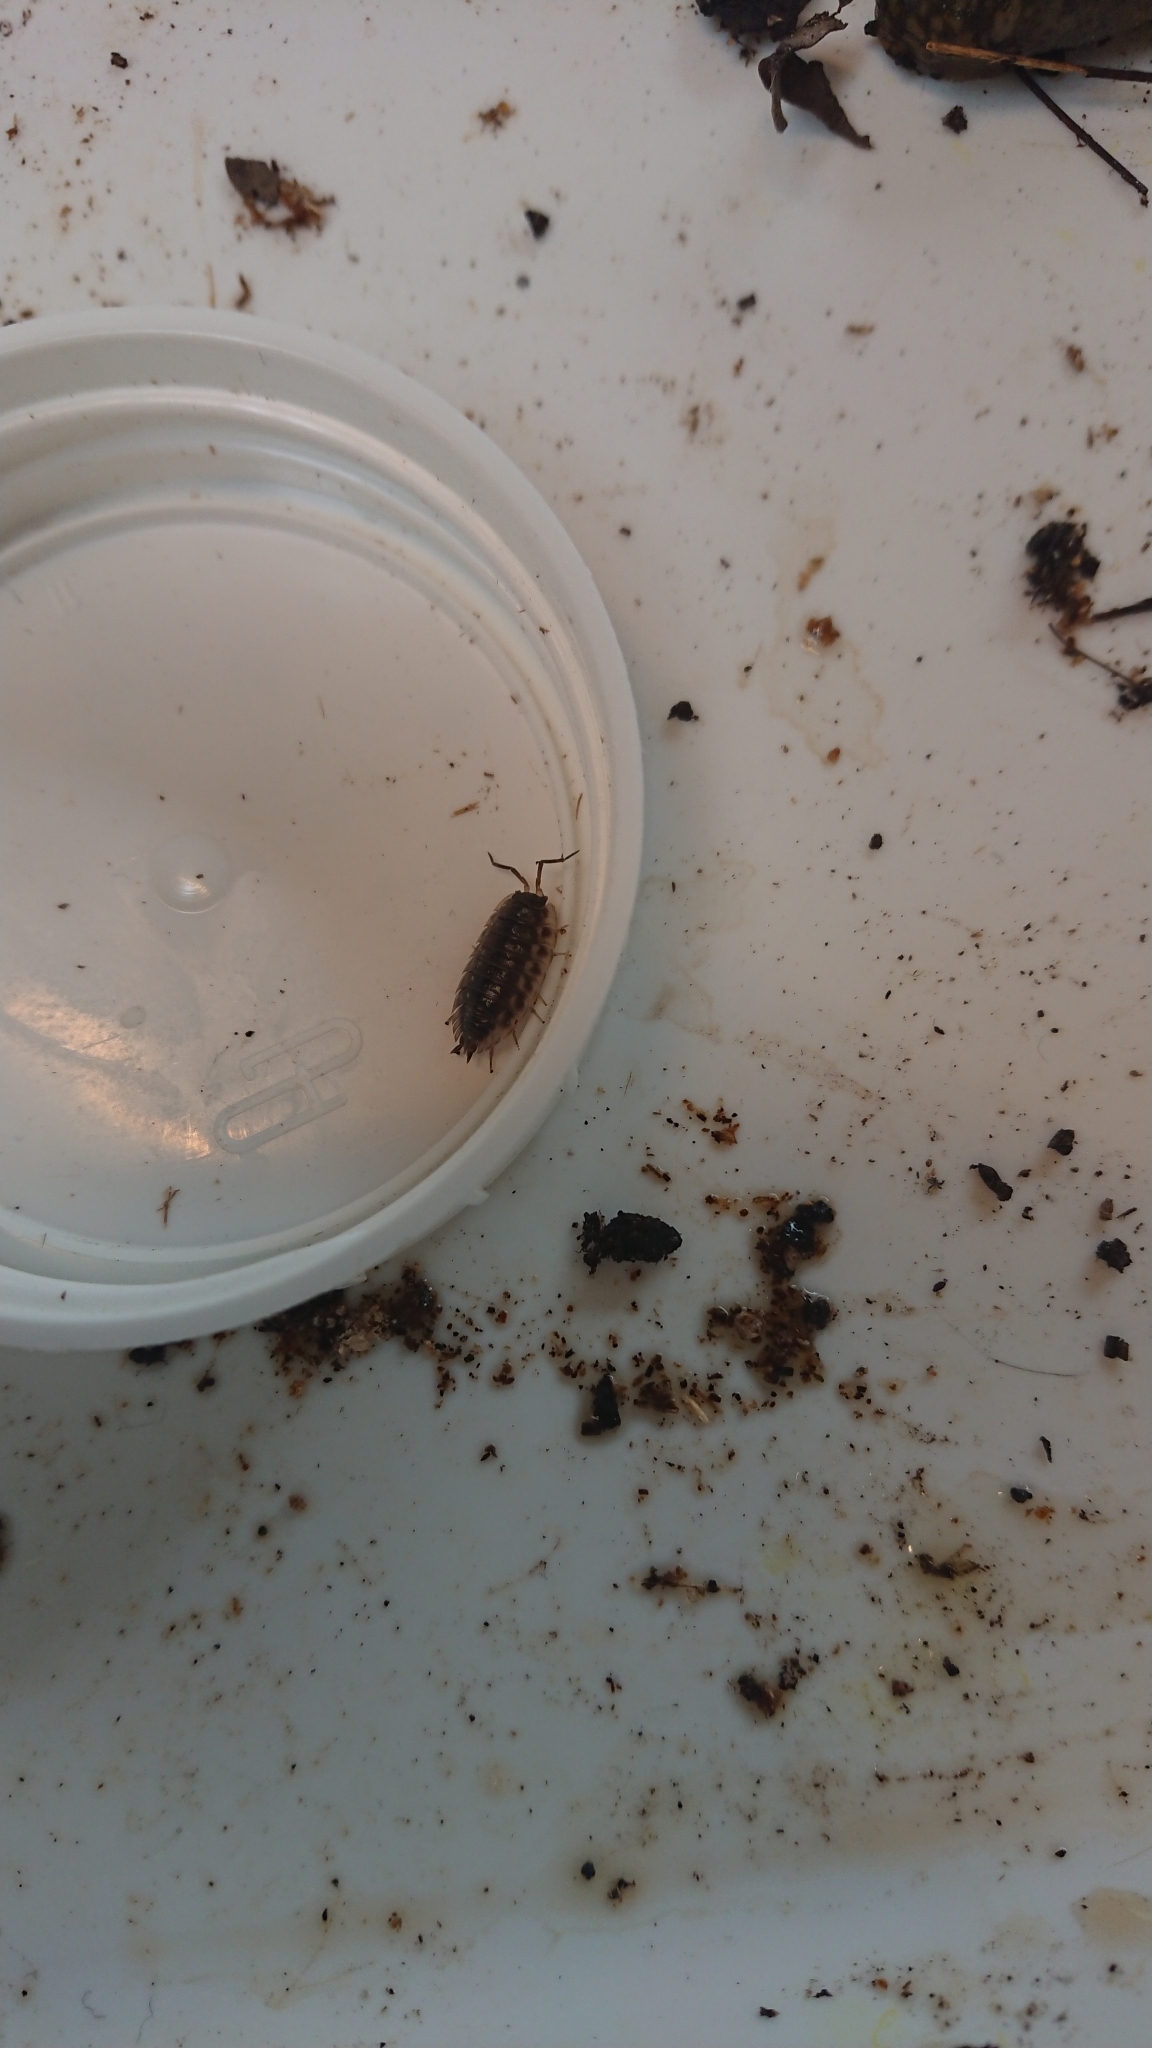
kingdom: Animalia
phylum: Arthropoda
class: Malacostraca
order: Isopoda
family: Oniscidae
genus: Oniscus
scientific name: Oniscus asellus
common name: Common shiny woodlouse
